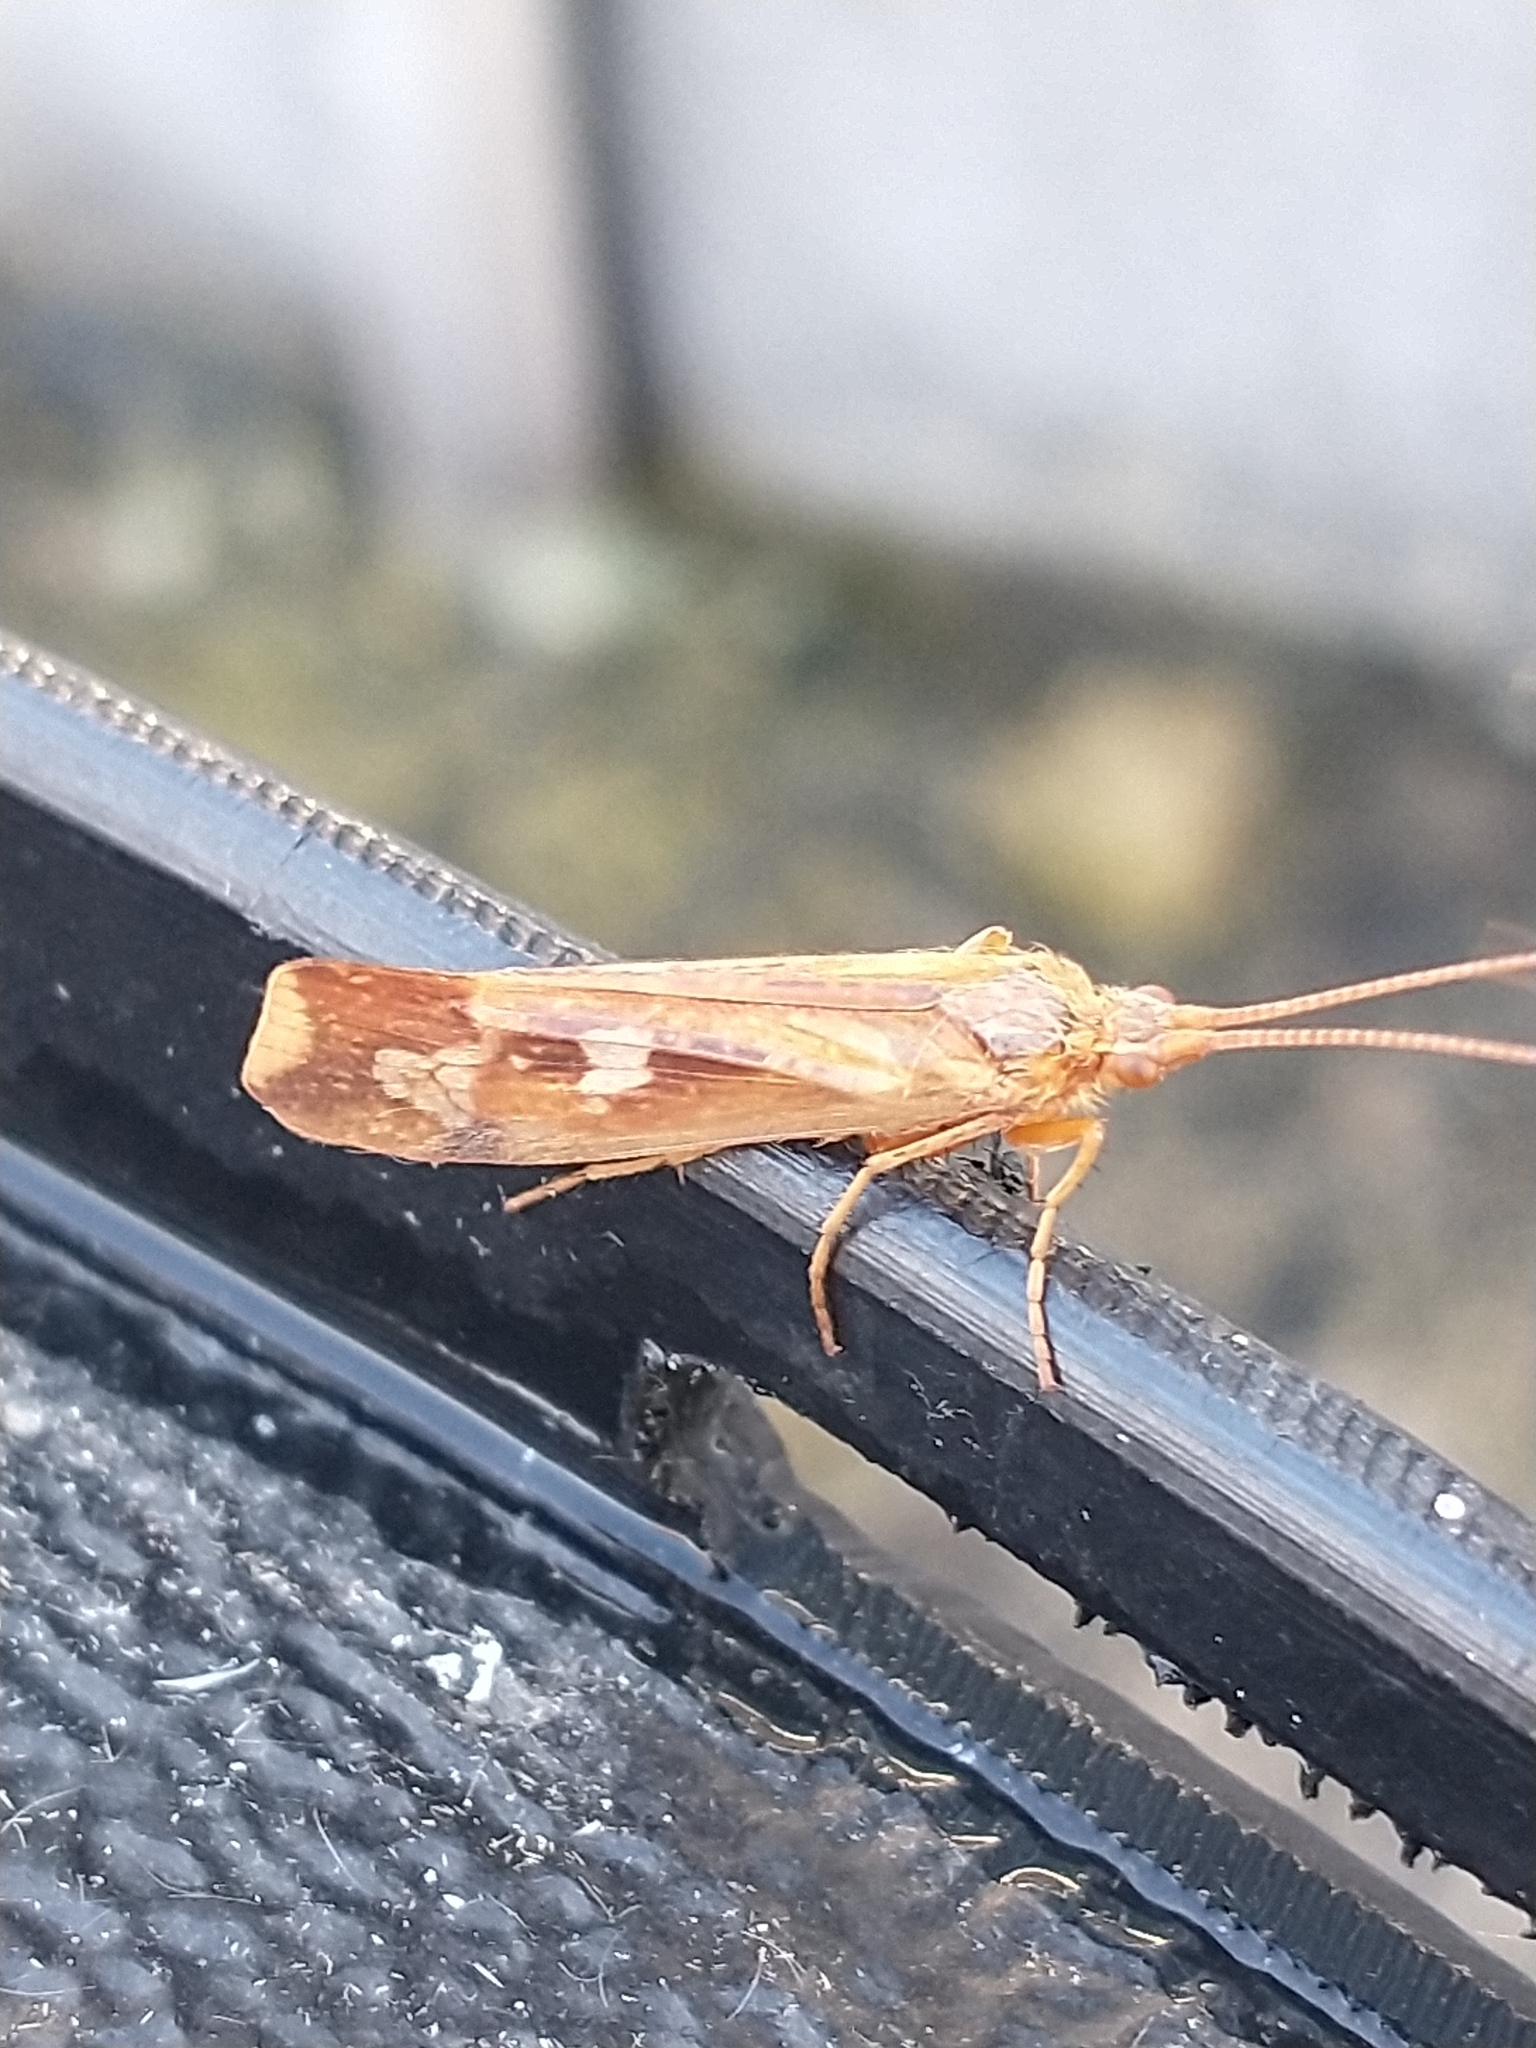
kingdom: Animalia
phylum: Arthropoda
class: Insecta
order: Trichoptera
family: Limnephilidae
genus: Limnephilus
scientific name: Limnephilus lunatus
